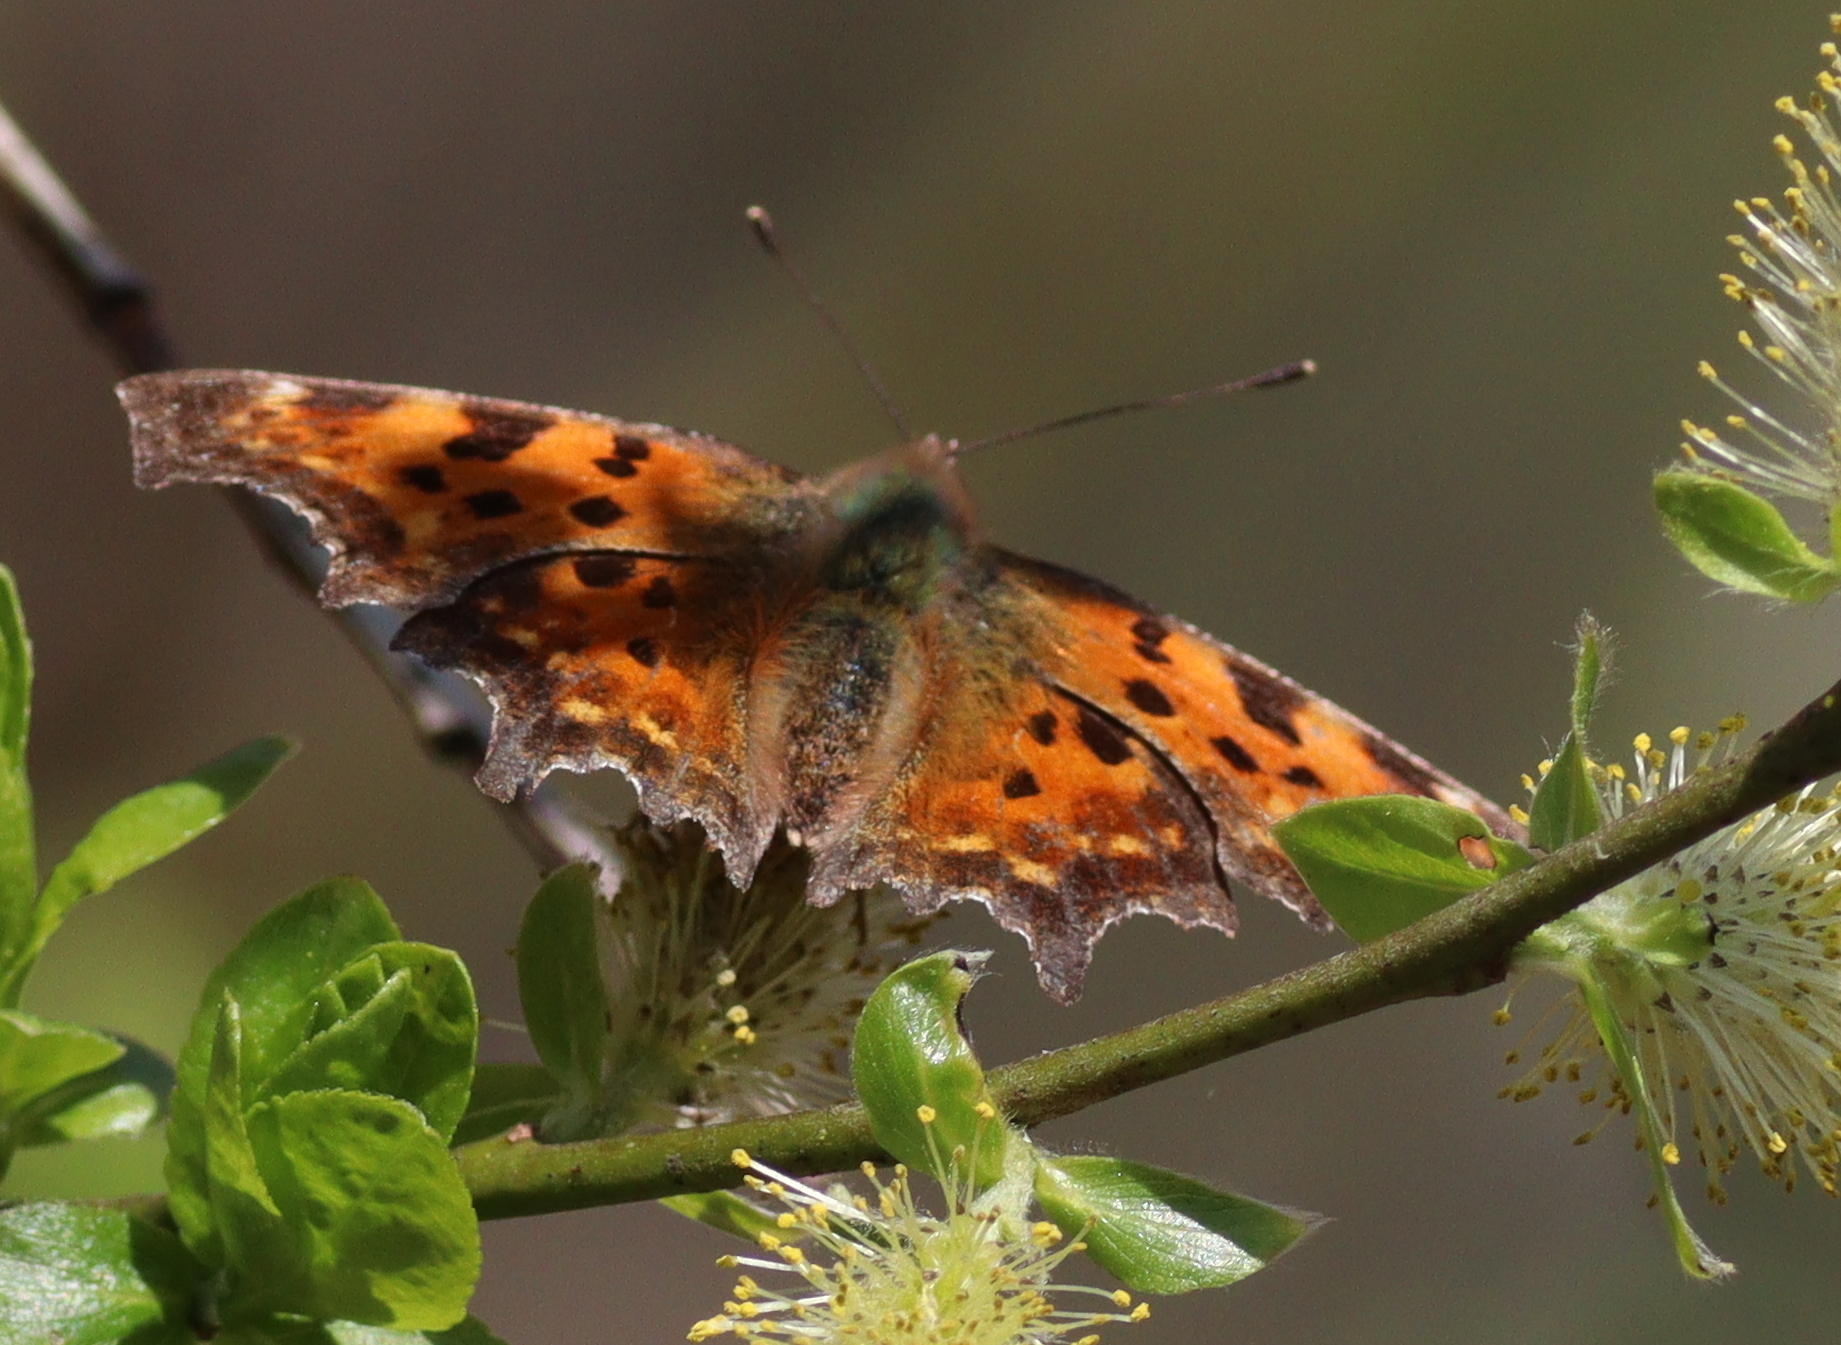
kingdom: Animalia
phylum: Arthropoda
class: Insecta
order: Lepidoptera
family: Nymphalidae
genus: Polygonia
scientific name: Polygonia c-album
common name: Comma
